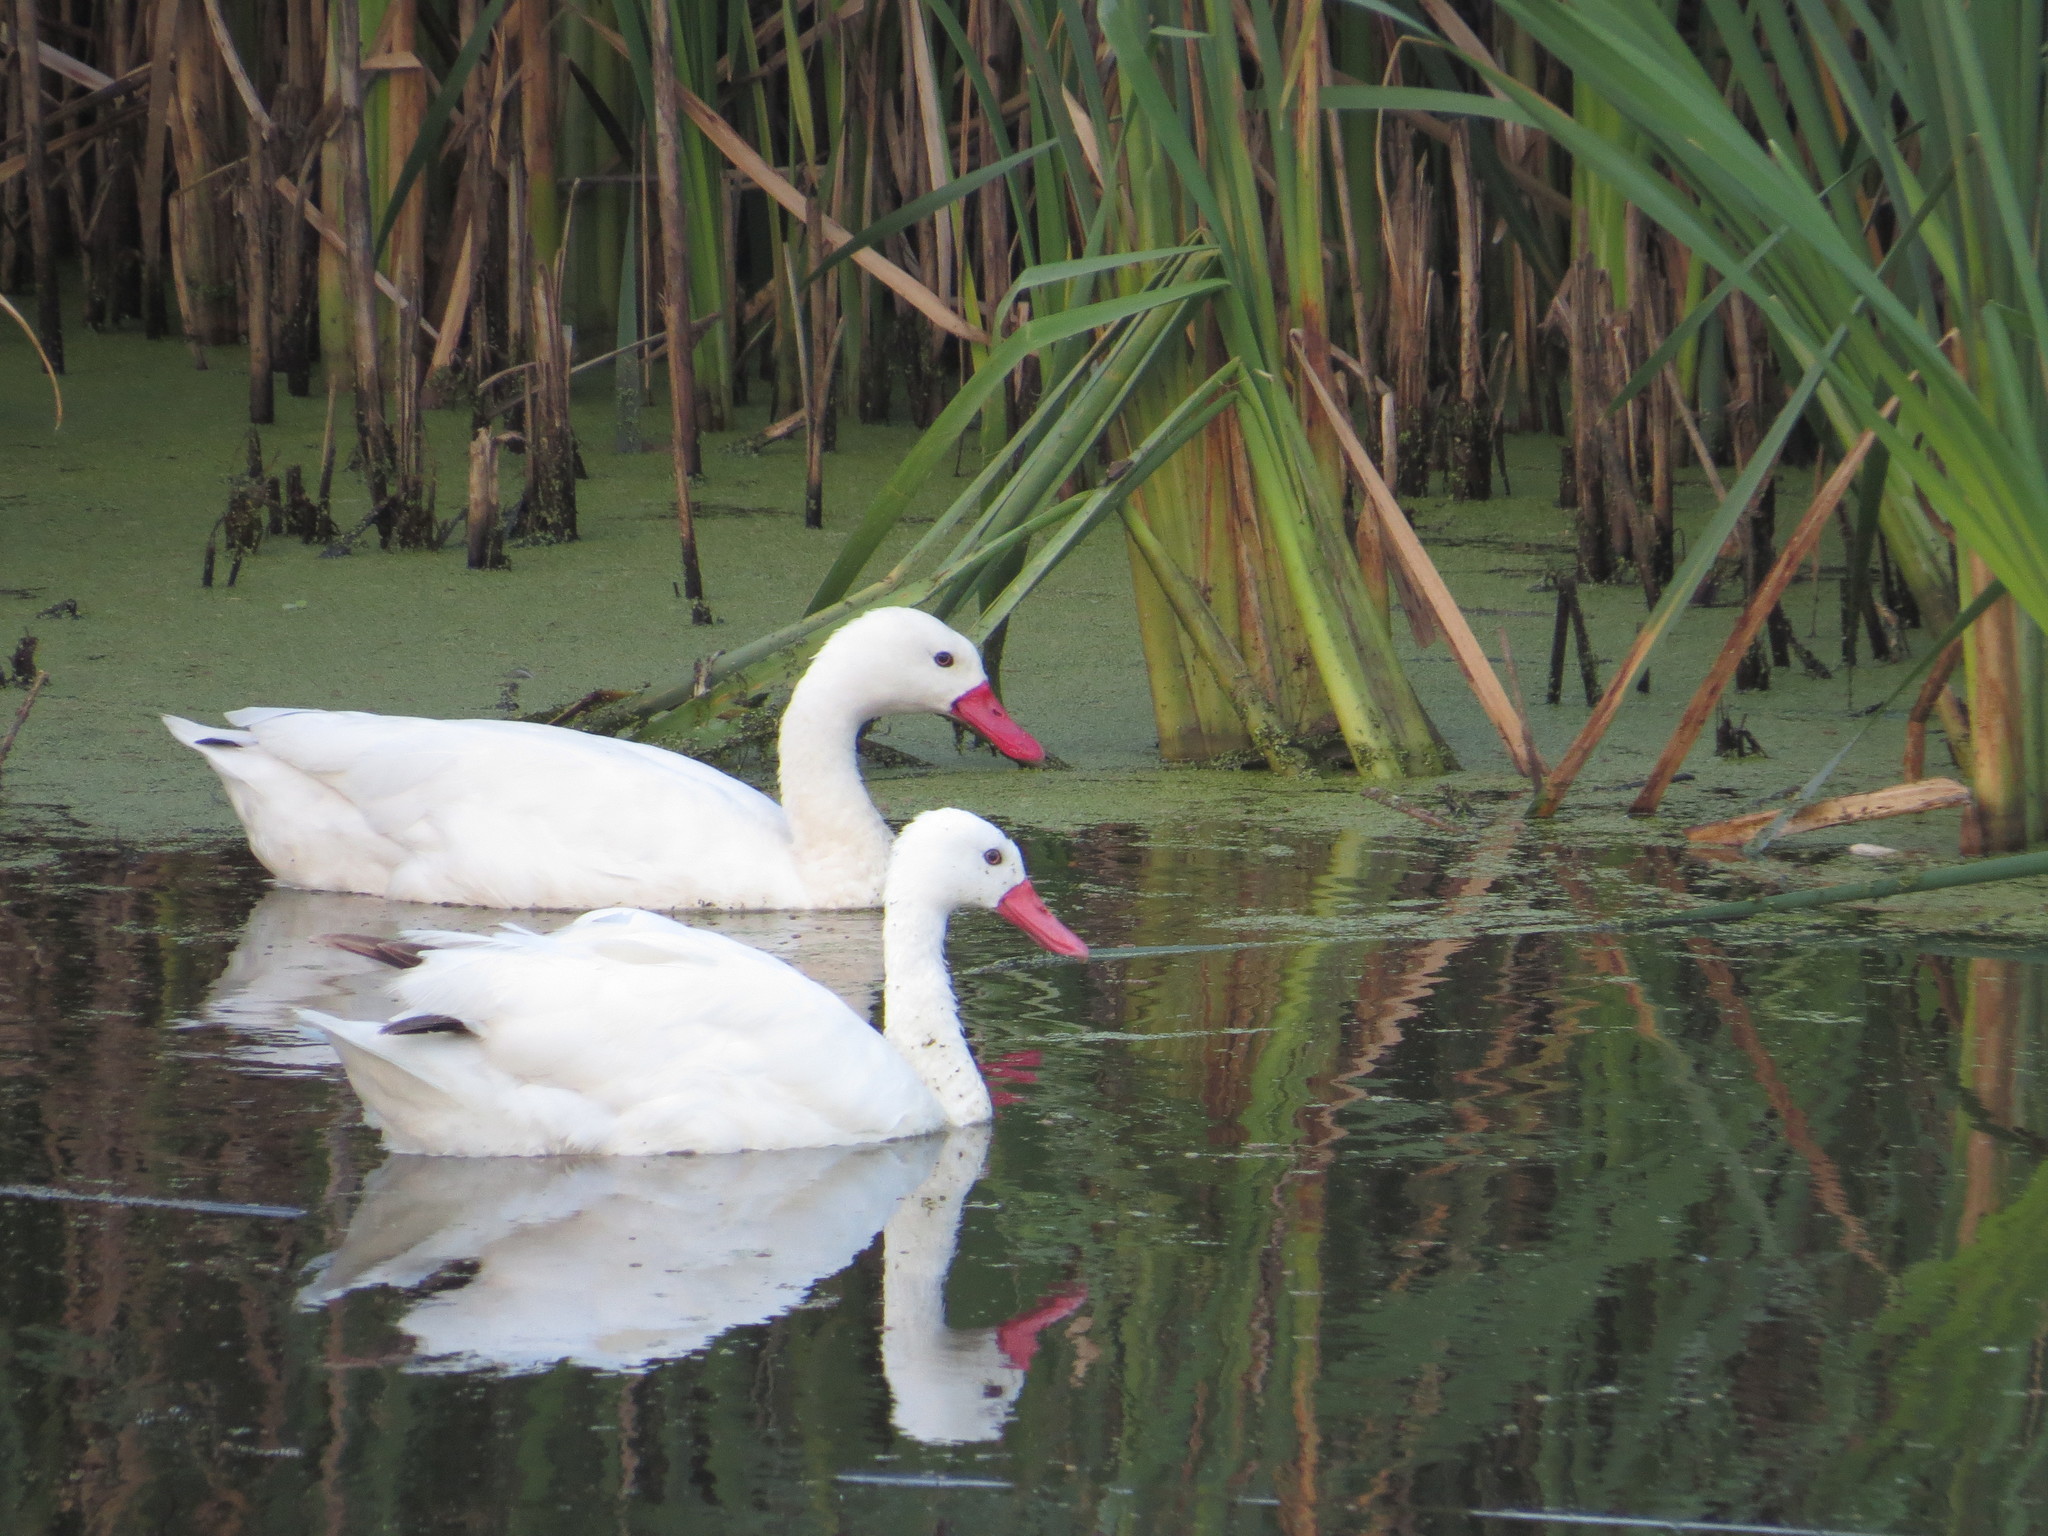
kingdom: Animalia
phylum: Chordata
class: Aves
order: Anseriformes
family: Anatidae
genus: Coscoroba
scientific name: Coscoroba coscoroba
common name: Coscoroba swan
